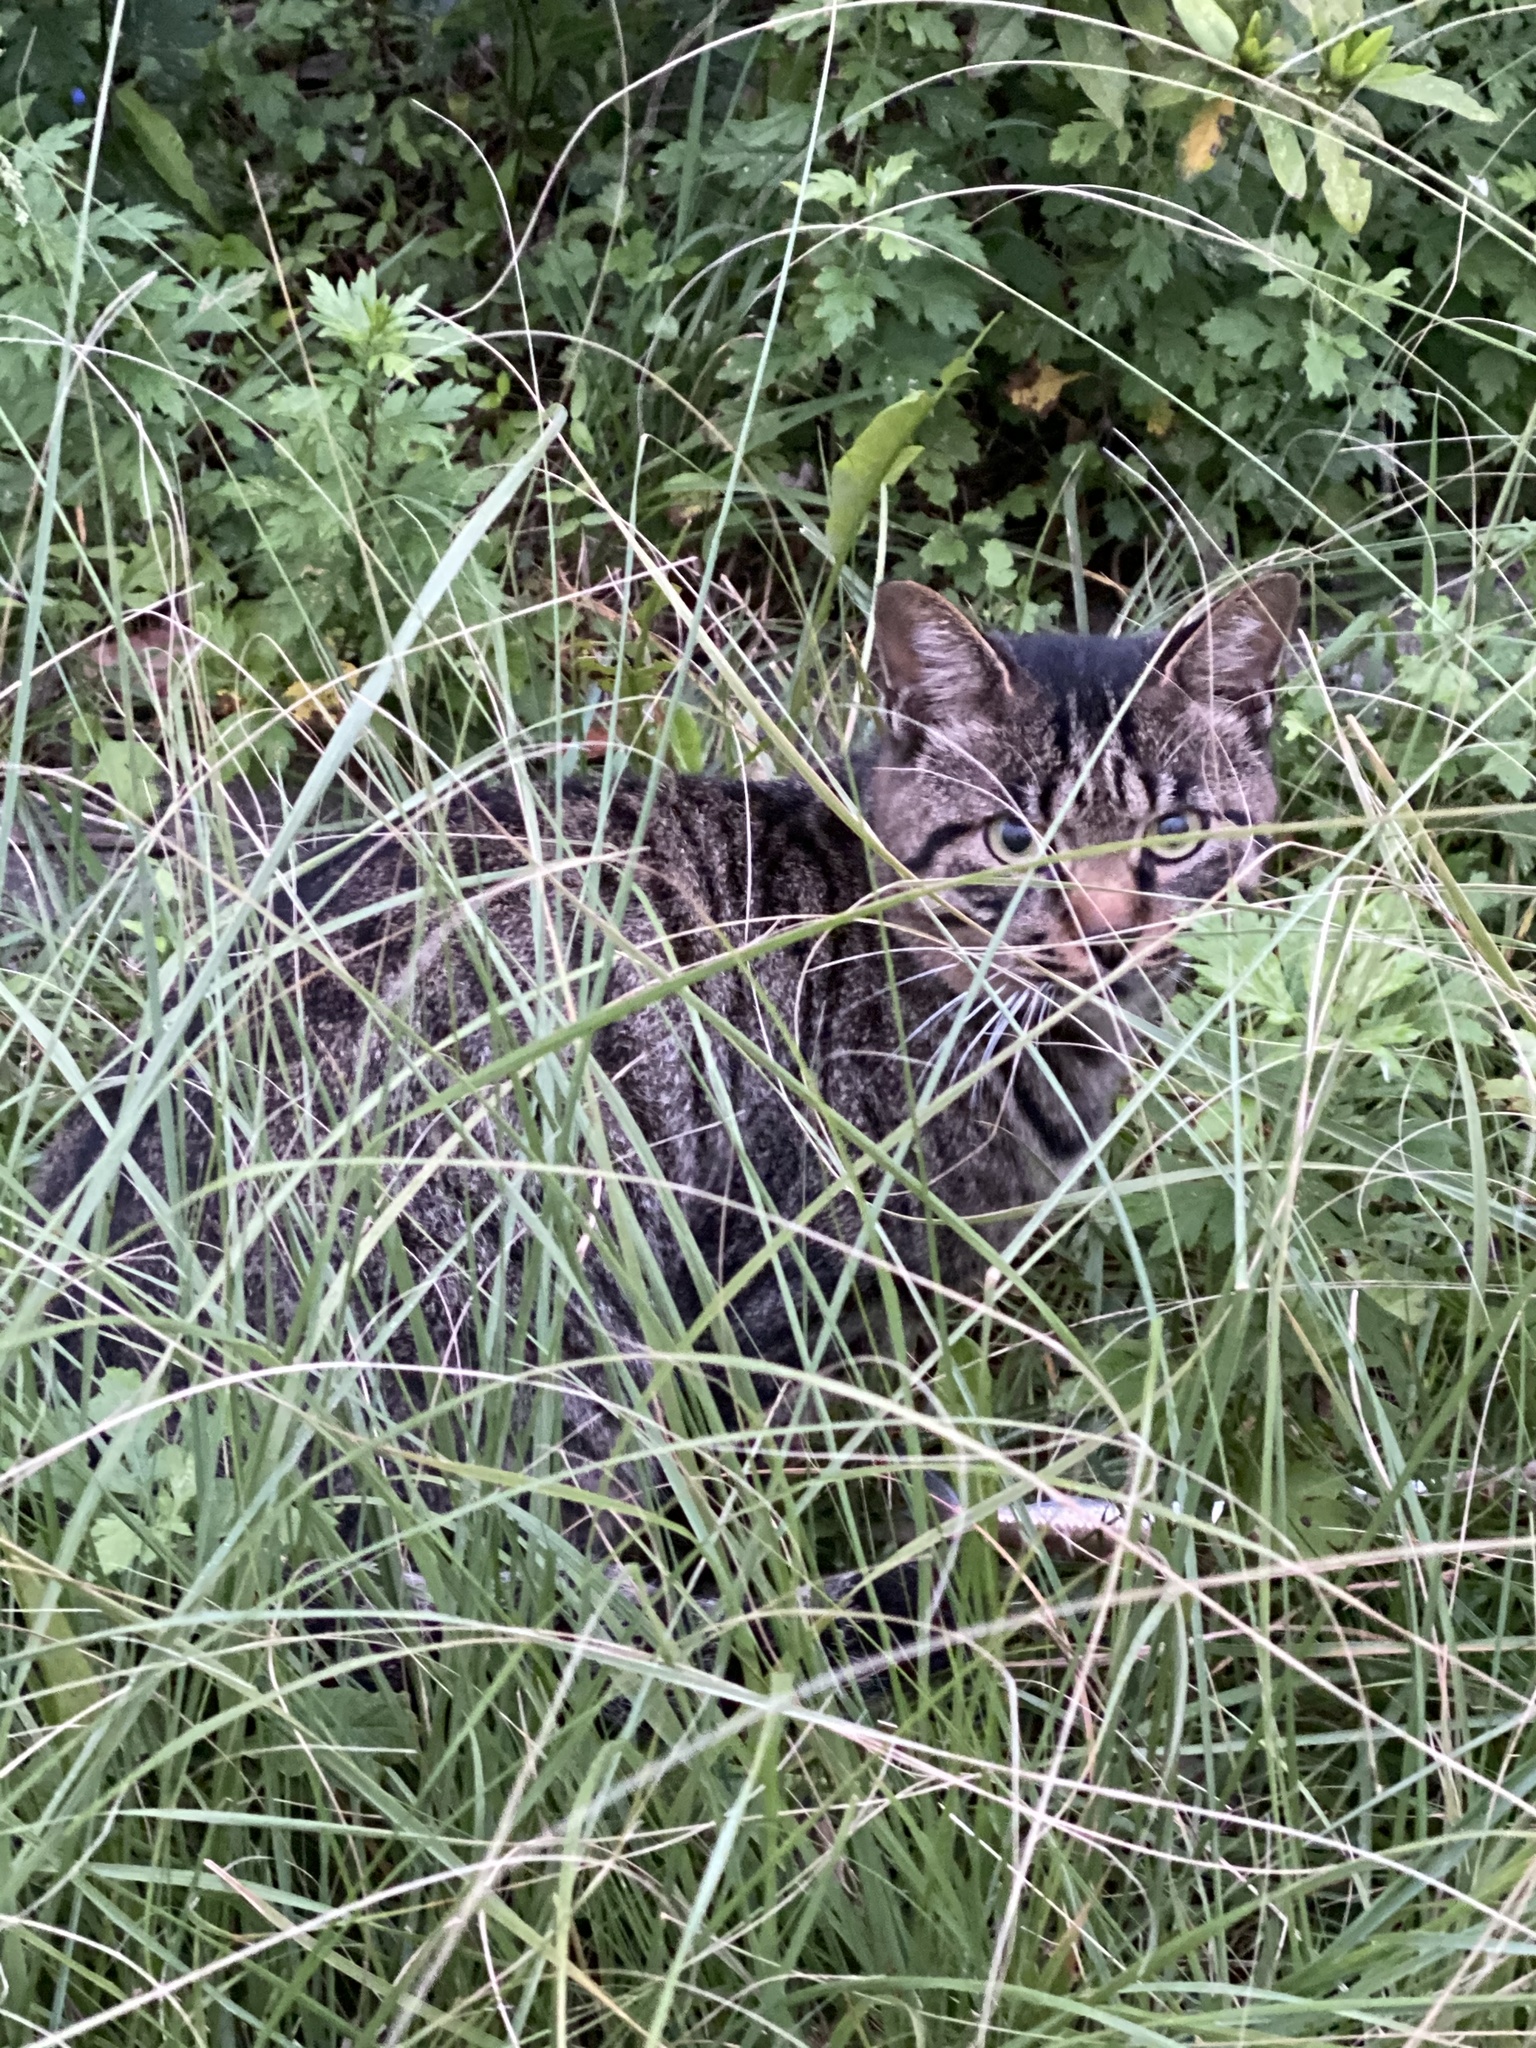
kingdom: Animalia
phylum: Chordata
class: Mammalia
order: Carnivora
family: Felidae
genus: Felis
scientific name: Felis catus
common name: Domestic cat
